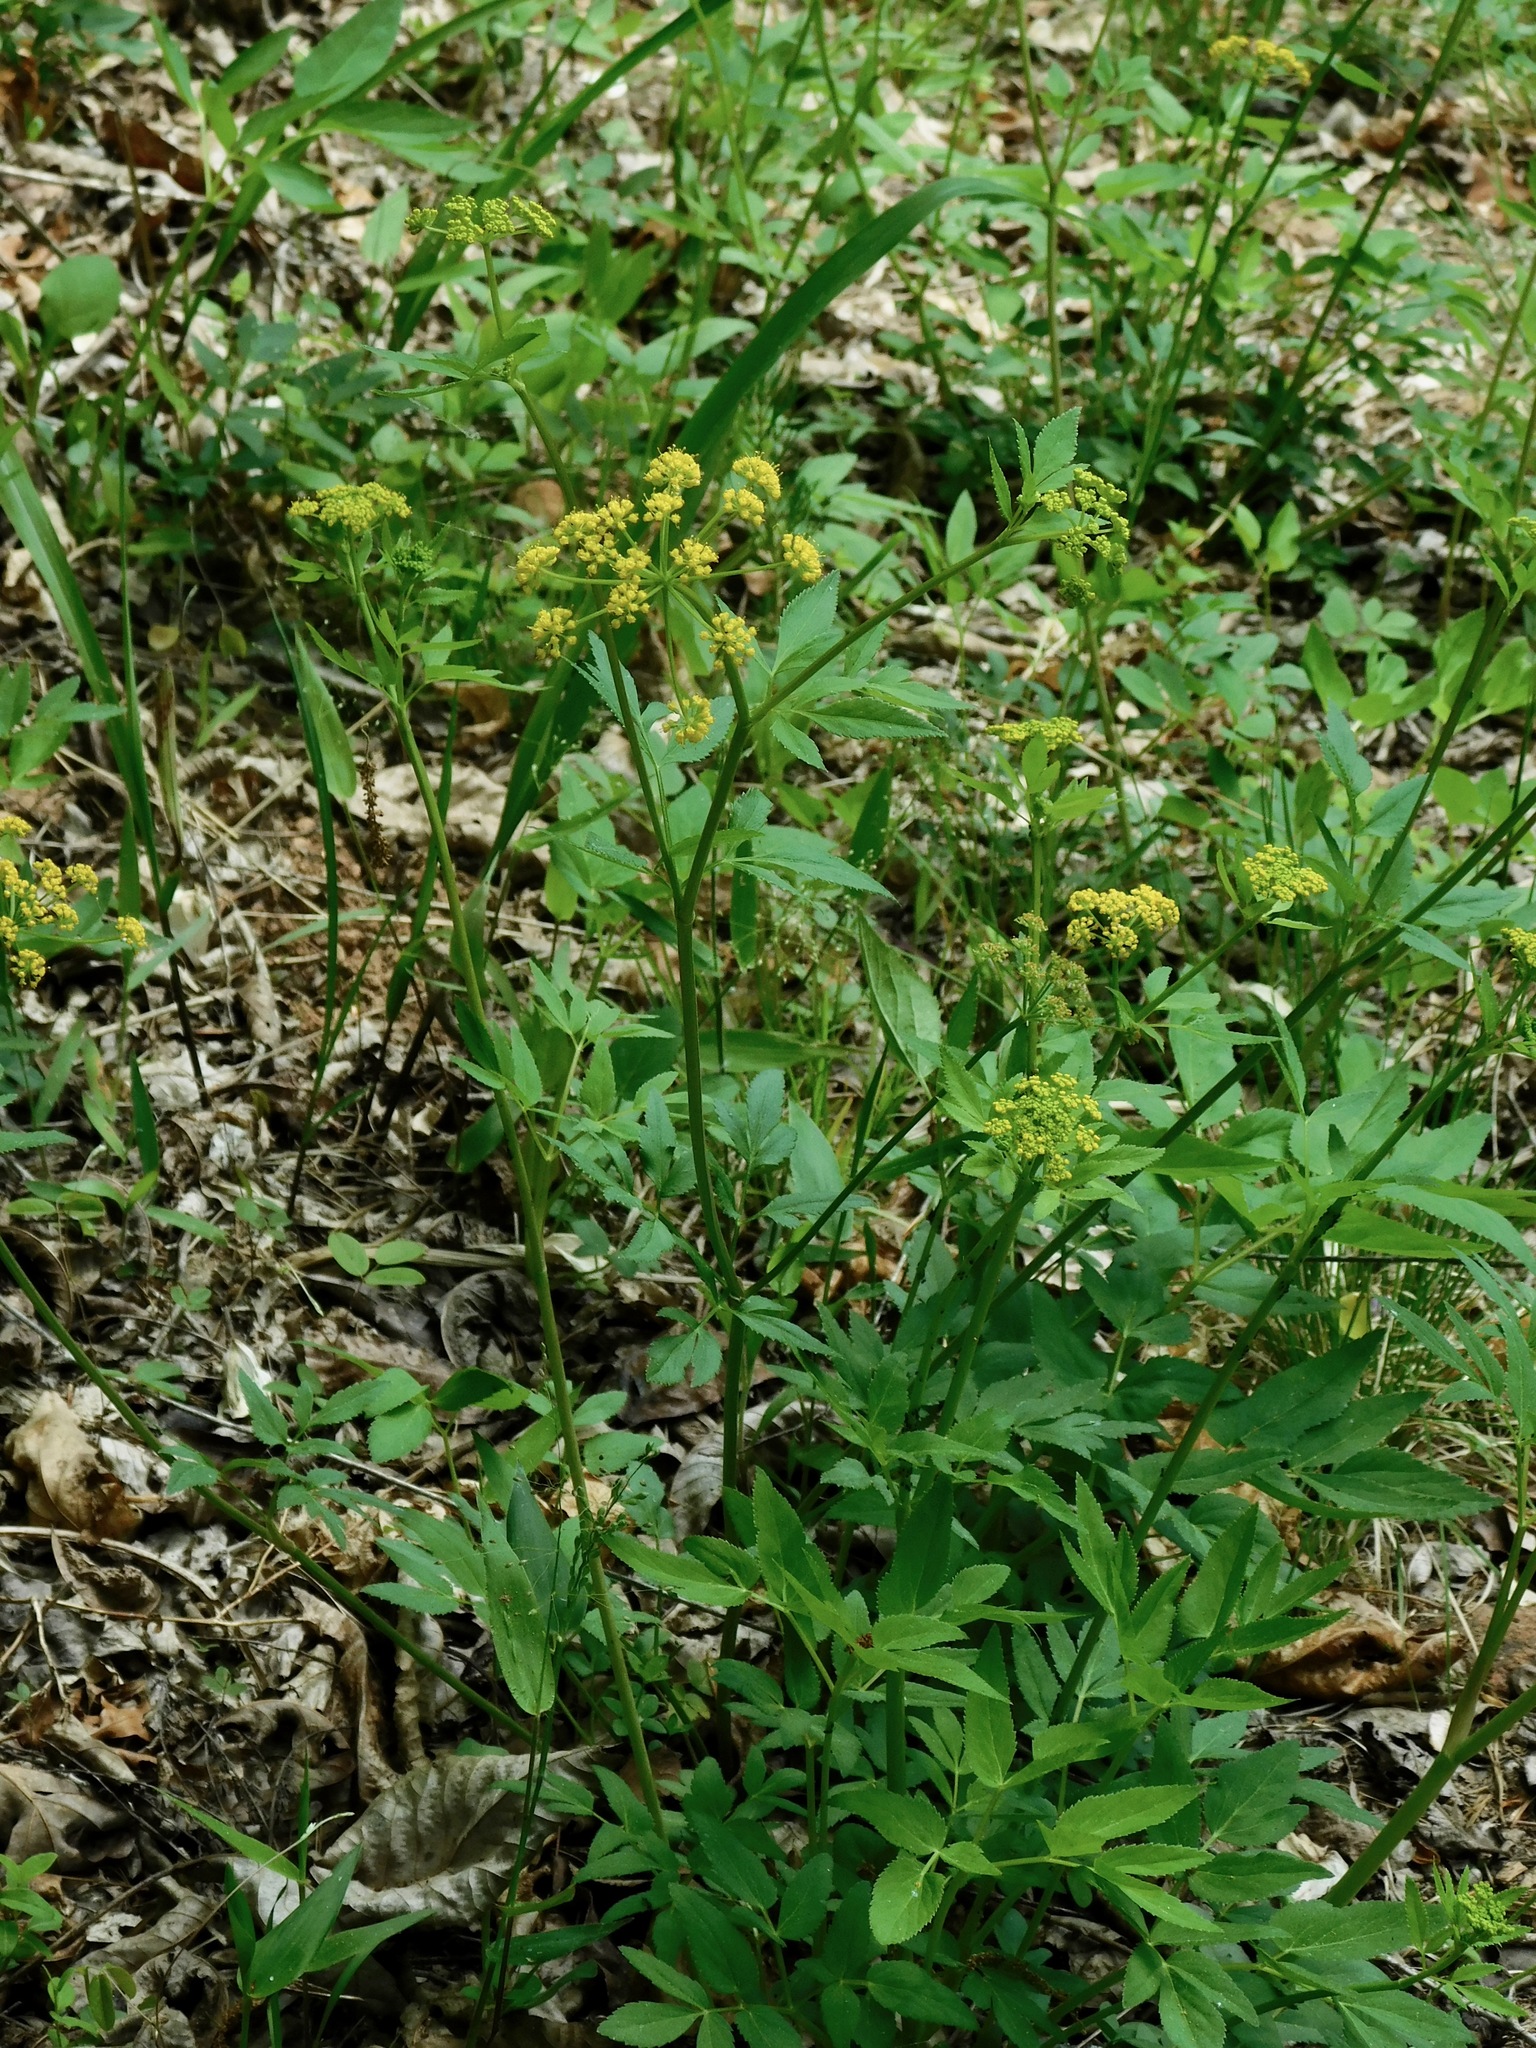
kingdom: Plantae
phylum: Tracheophyta
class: Magnoliopsida
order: Apiales
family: Apiaceae
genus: Zizia
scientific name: Zizia aurea
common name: Golden alexanders
